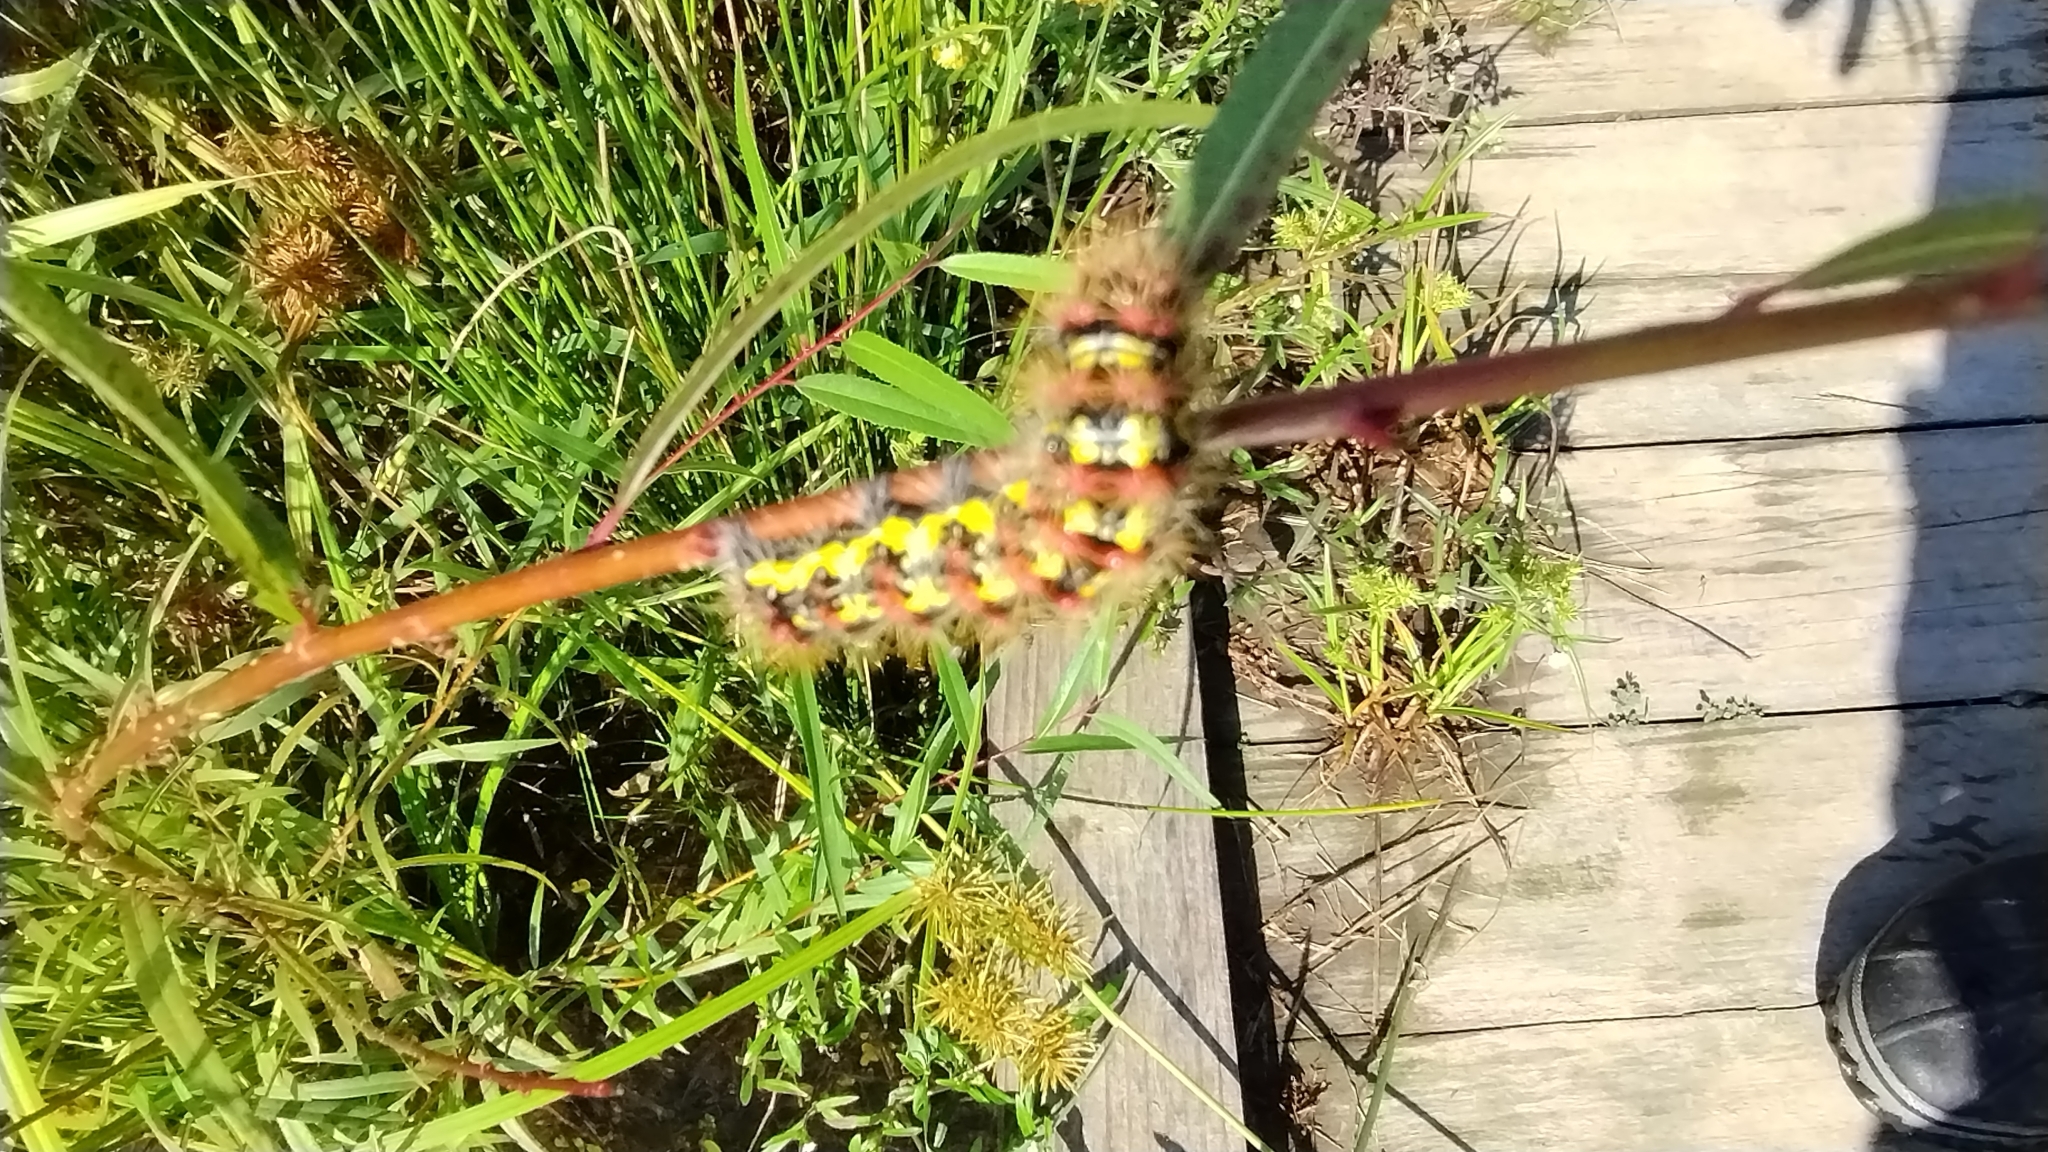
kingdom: Animalia
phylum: Arthropoda
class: Insecta
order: Lepidoptera
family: Noctuidae
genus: Acronicta
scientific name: Acronicta oblinita
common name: Smeared dagger
